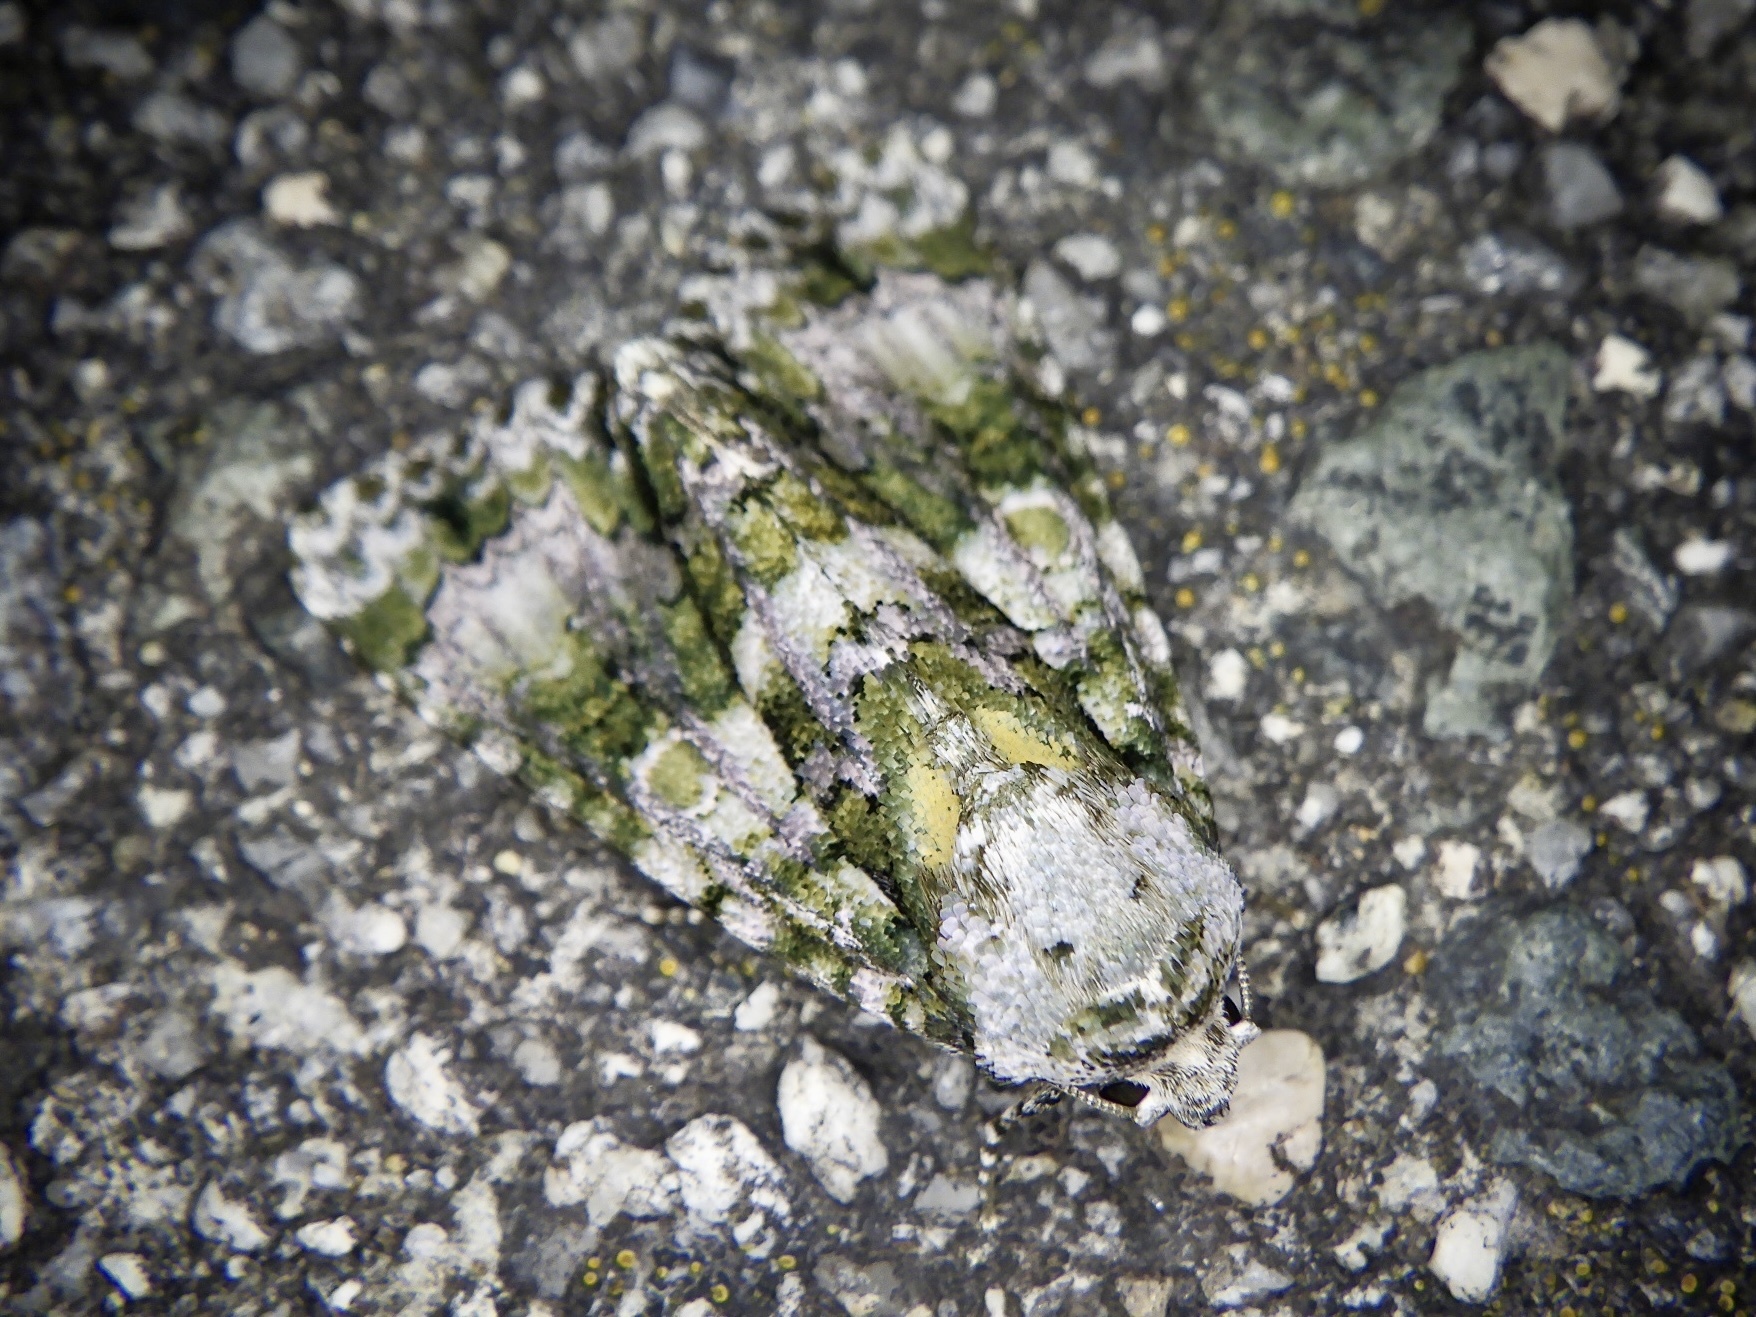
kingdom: Animalia
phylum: Arthropoda
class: Insecta
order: Lepidoptera
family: Noctuidae
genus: Craniophora
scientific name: Craniophora praeclara
